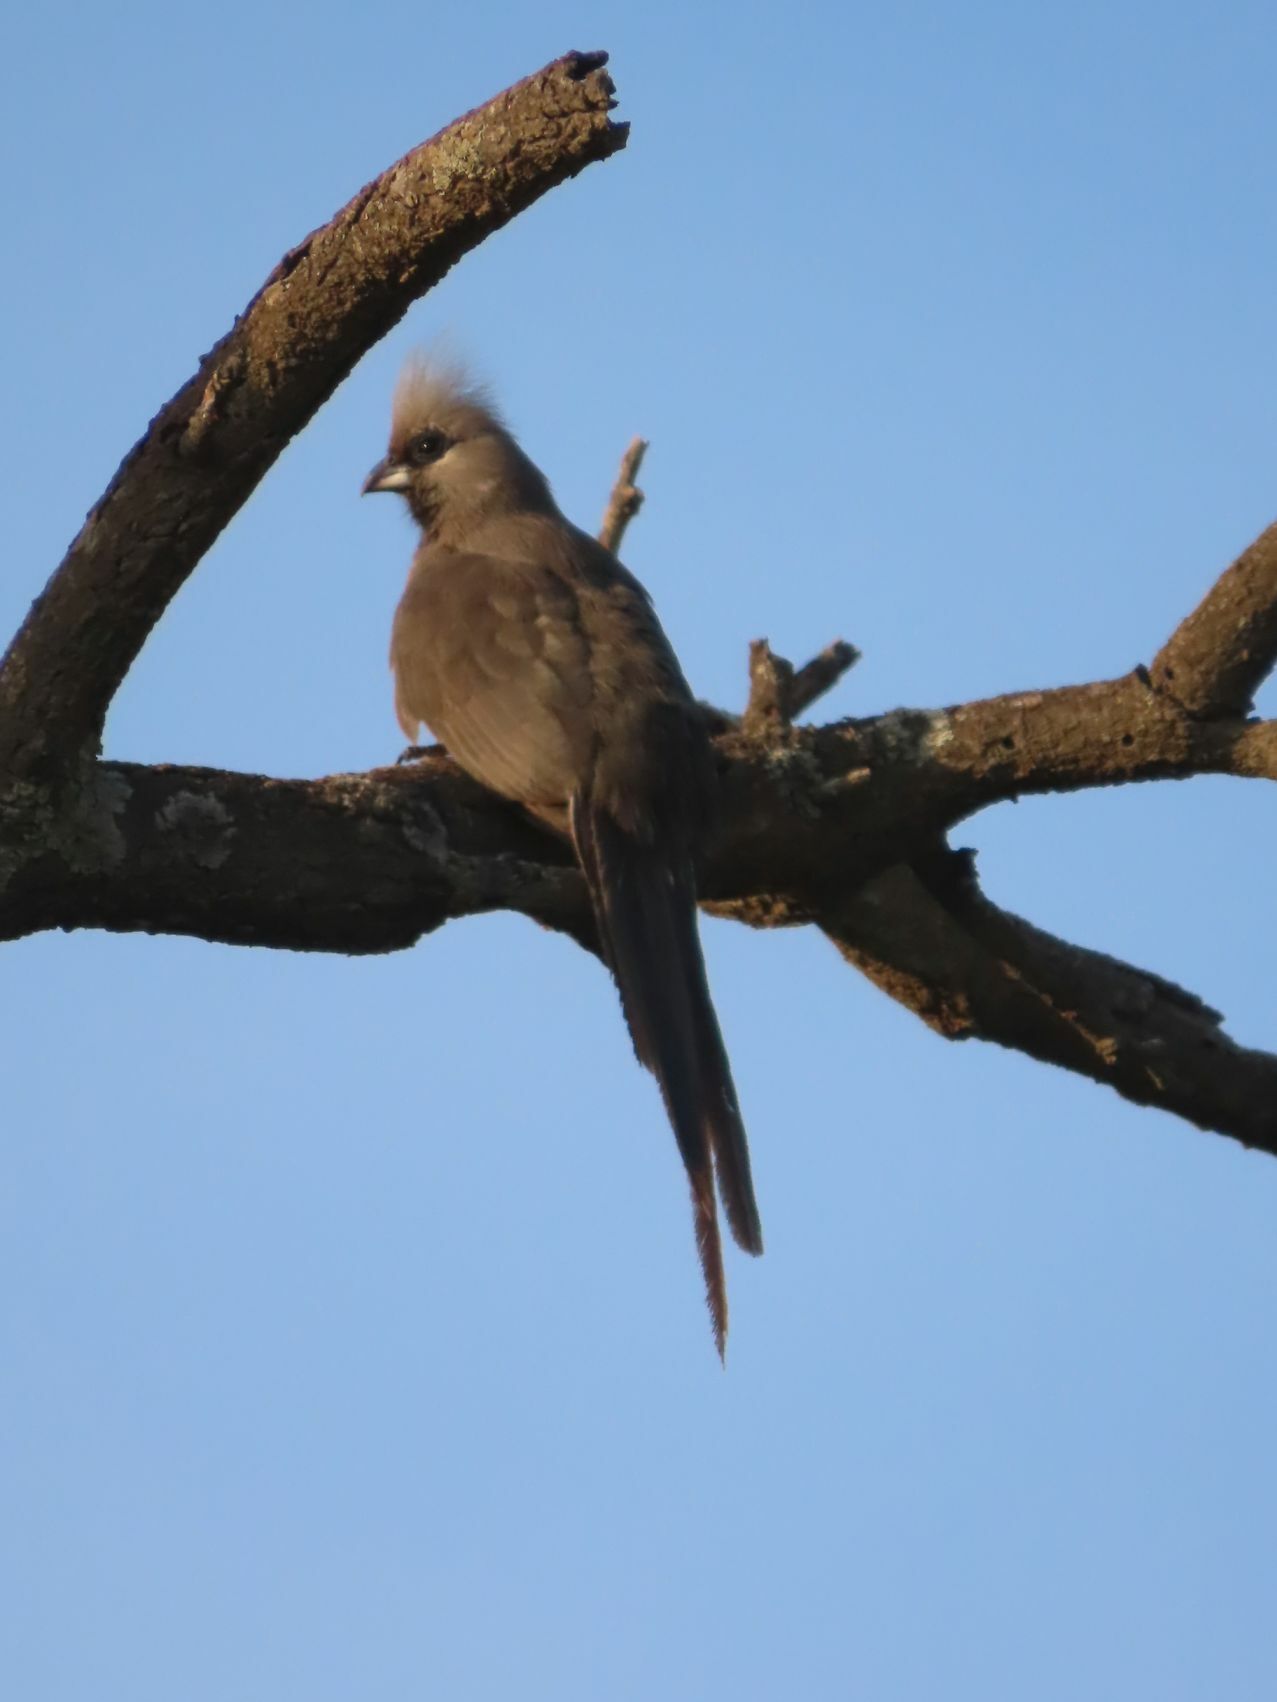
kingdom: Animalia
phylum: Chordata
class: Aves
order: Coliiformes
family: Coliidae
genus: Colius
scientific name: Colius striatus
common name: Speckled mousebird
